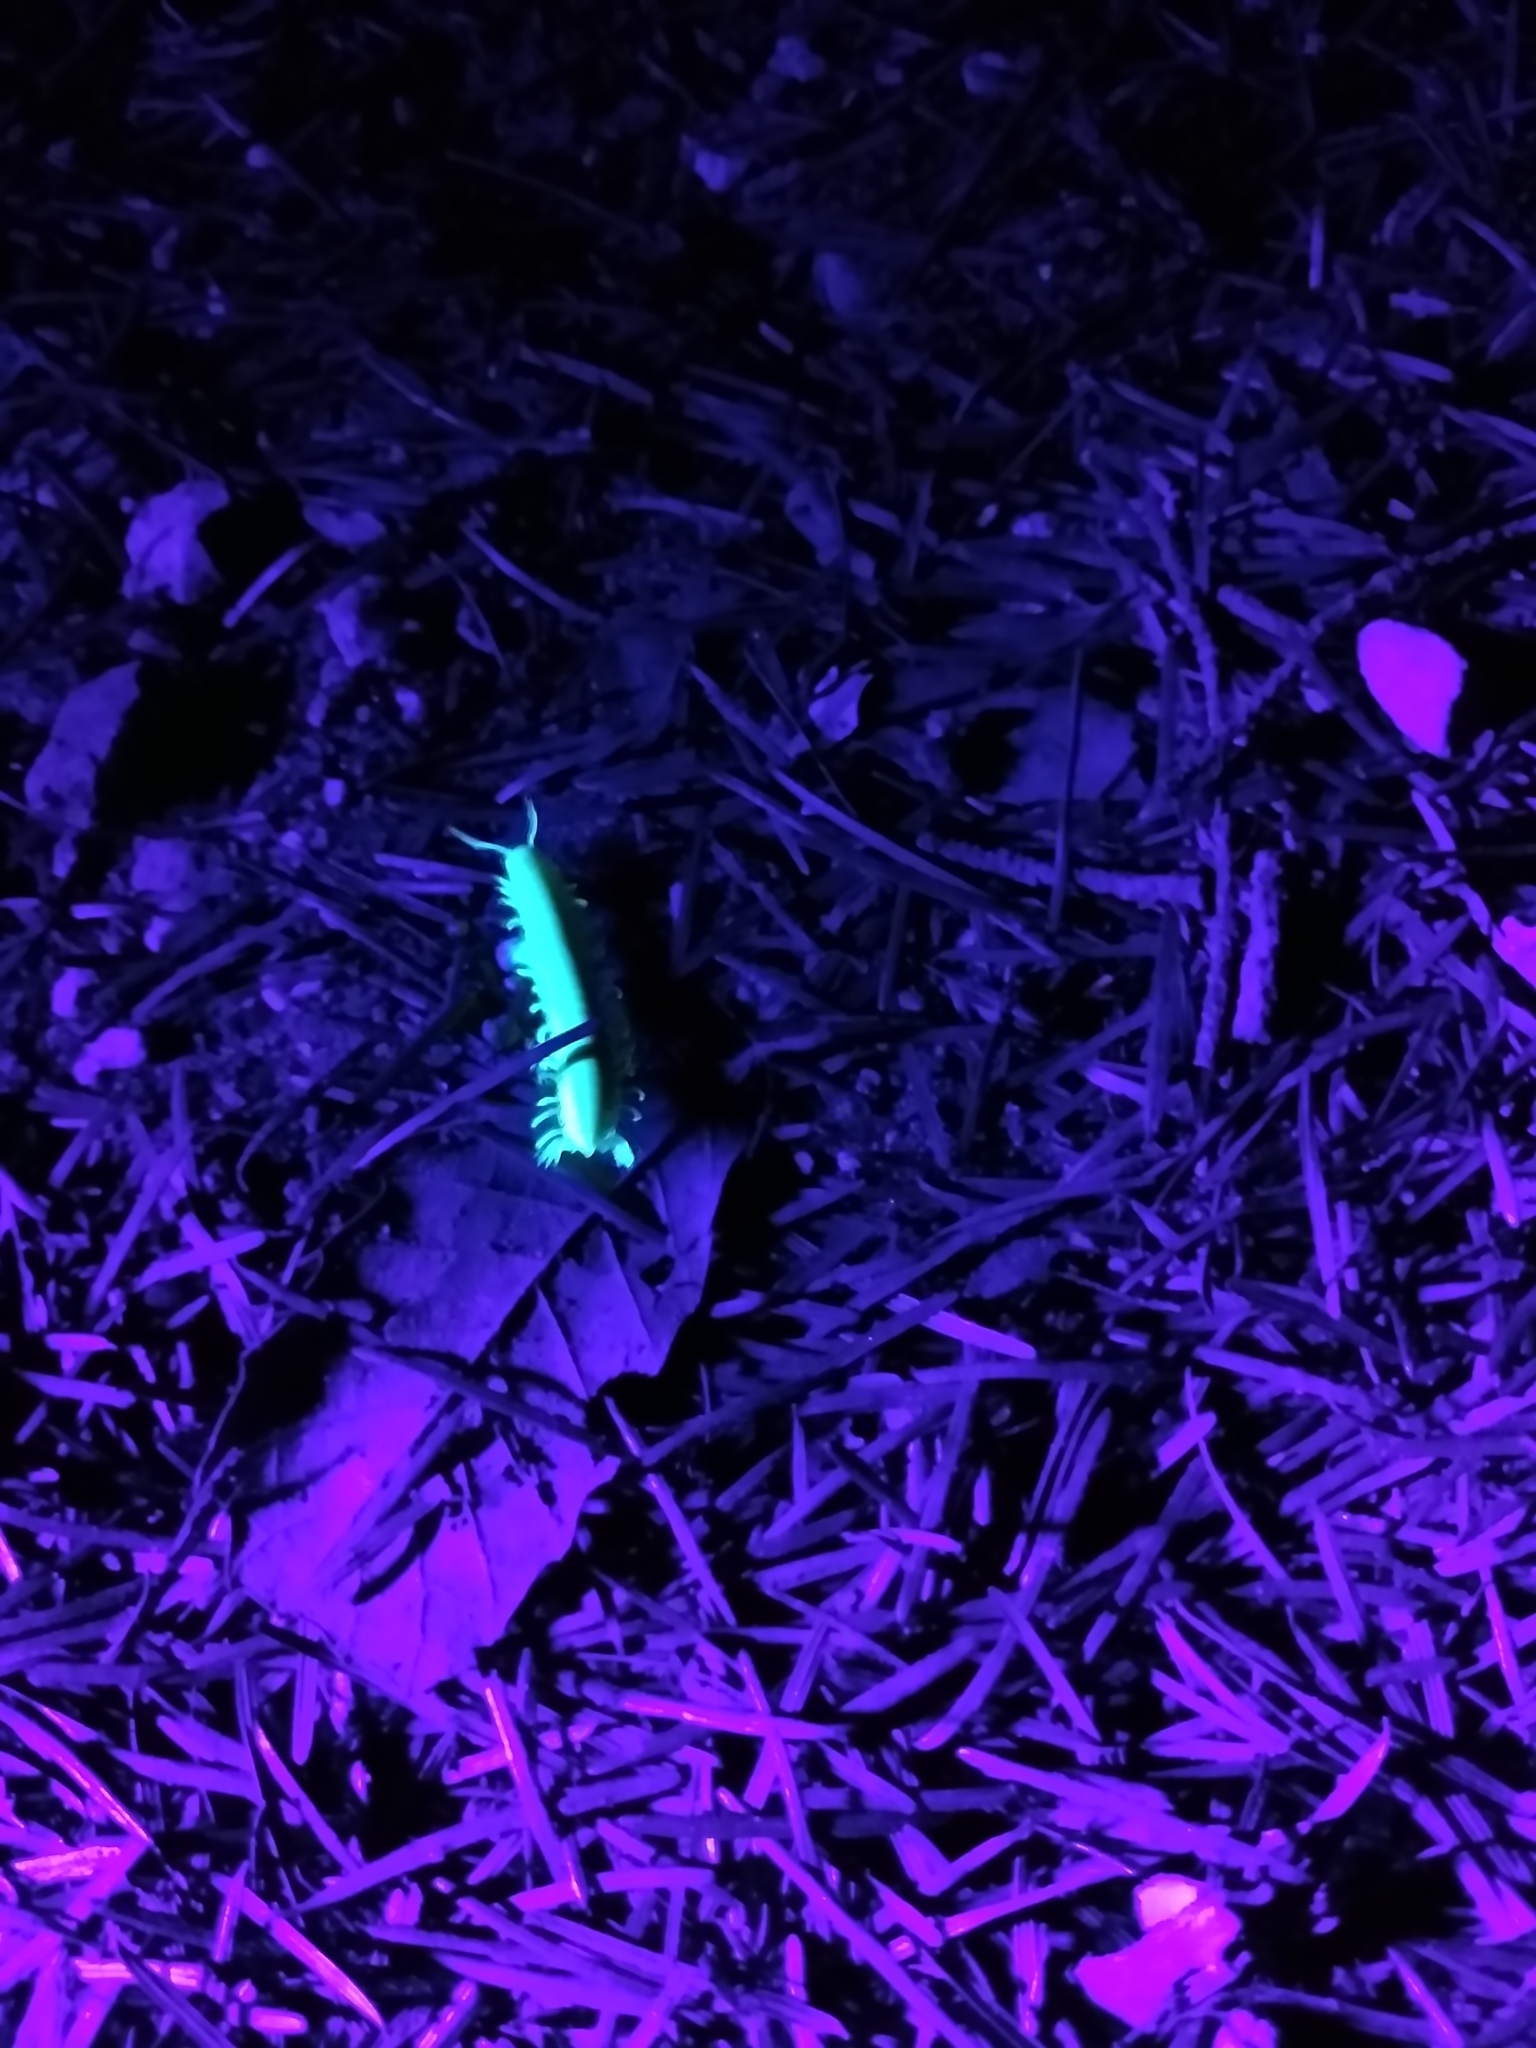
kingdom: Animalia
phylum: Arthropoda
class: Diplopoda
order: Polydesmida
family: Xystodesmidae
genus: Xystocheir
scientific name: Xystocheir dissecta
